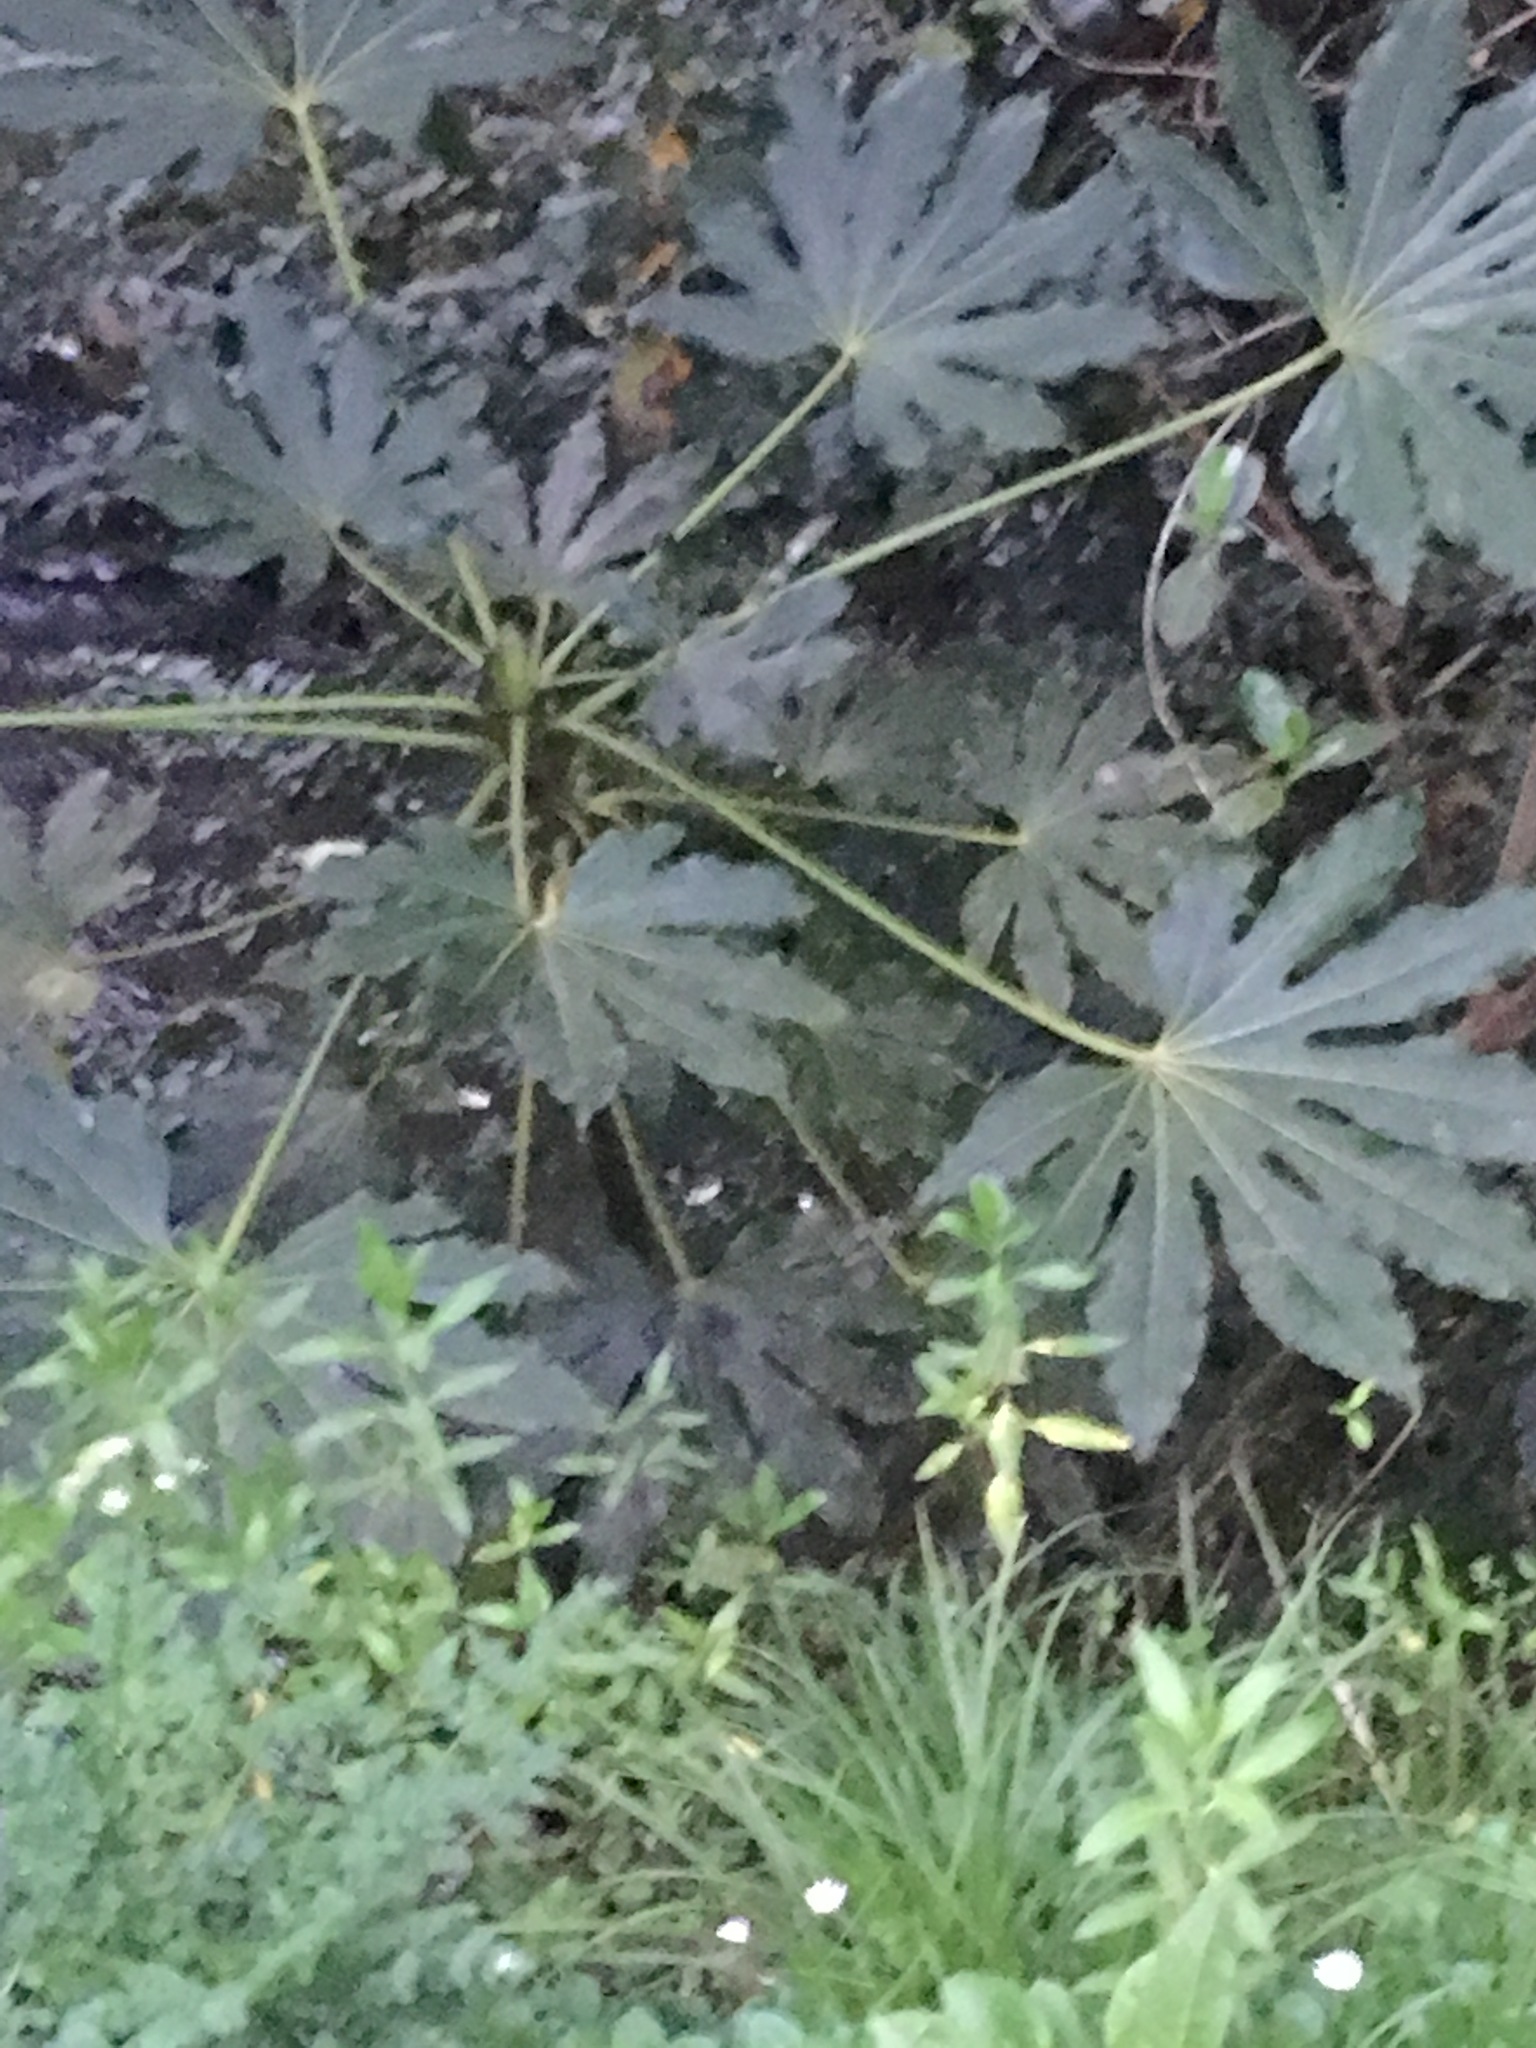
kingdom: Plantae
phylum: Tracheophyta
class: Magnoliopsida
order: Apiales
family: Araliaceae
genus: Fatsia
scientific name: Fatsia japonica
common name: Fatsia
